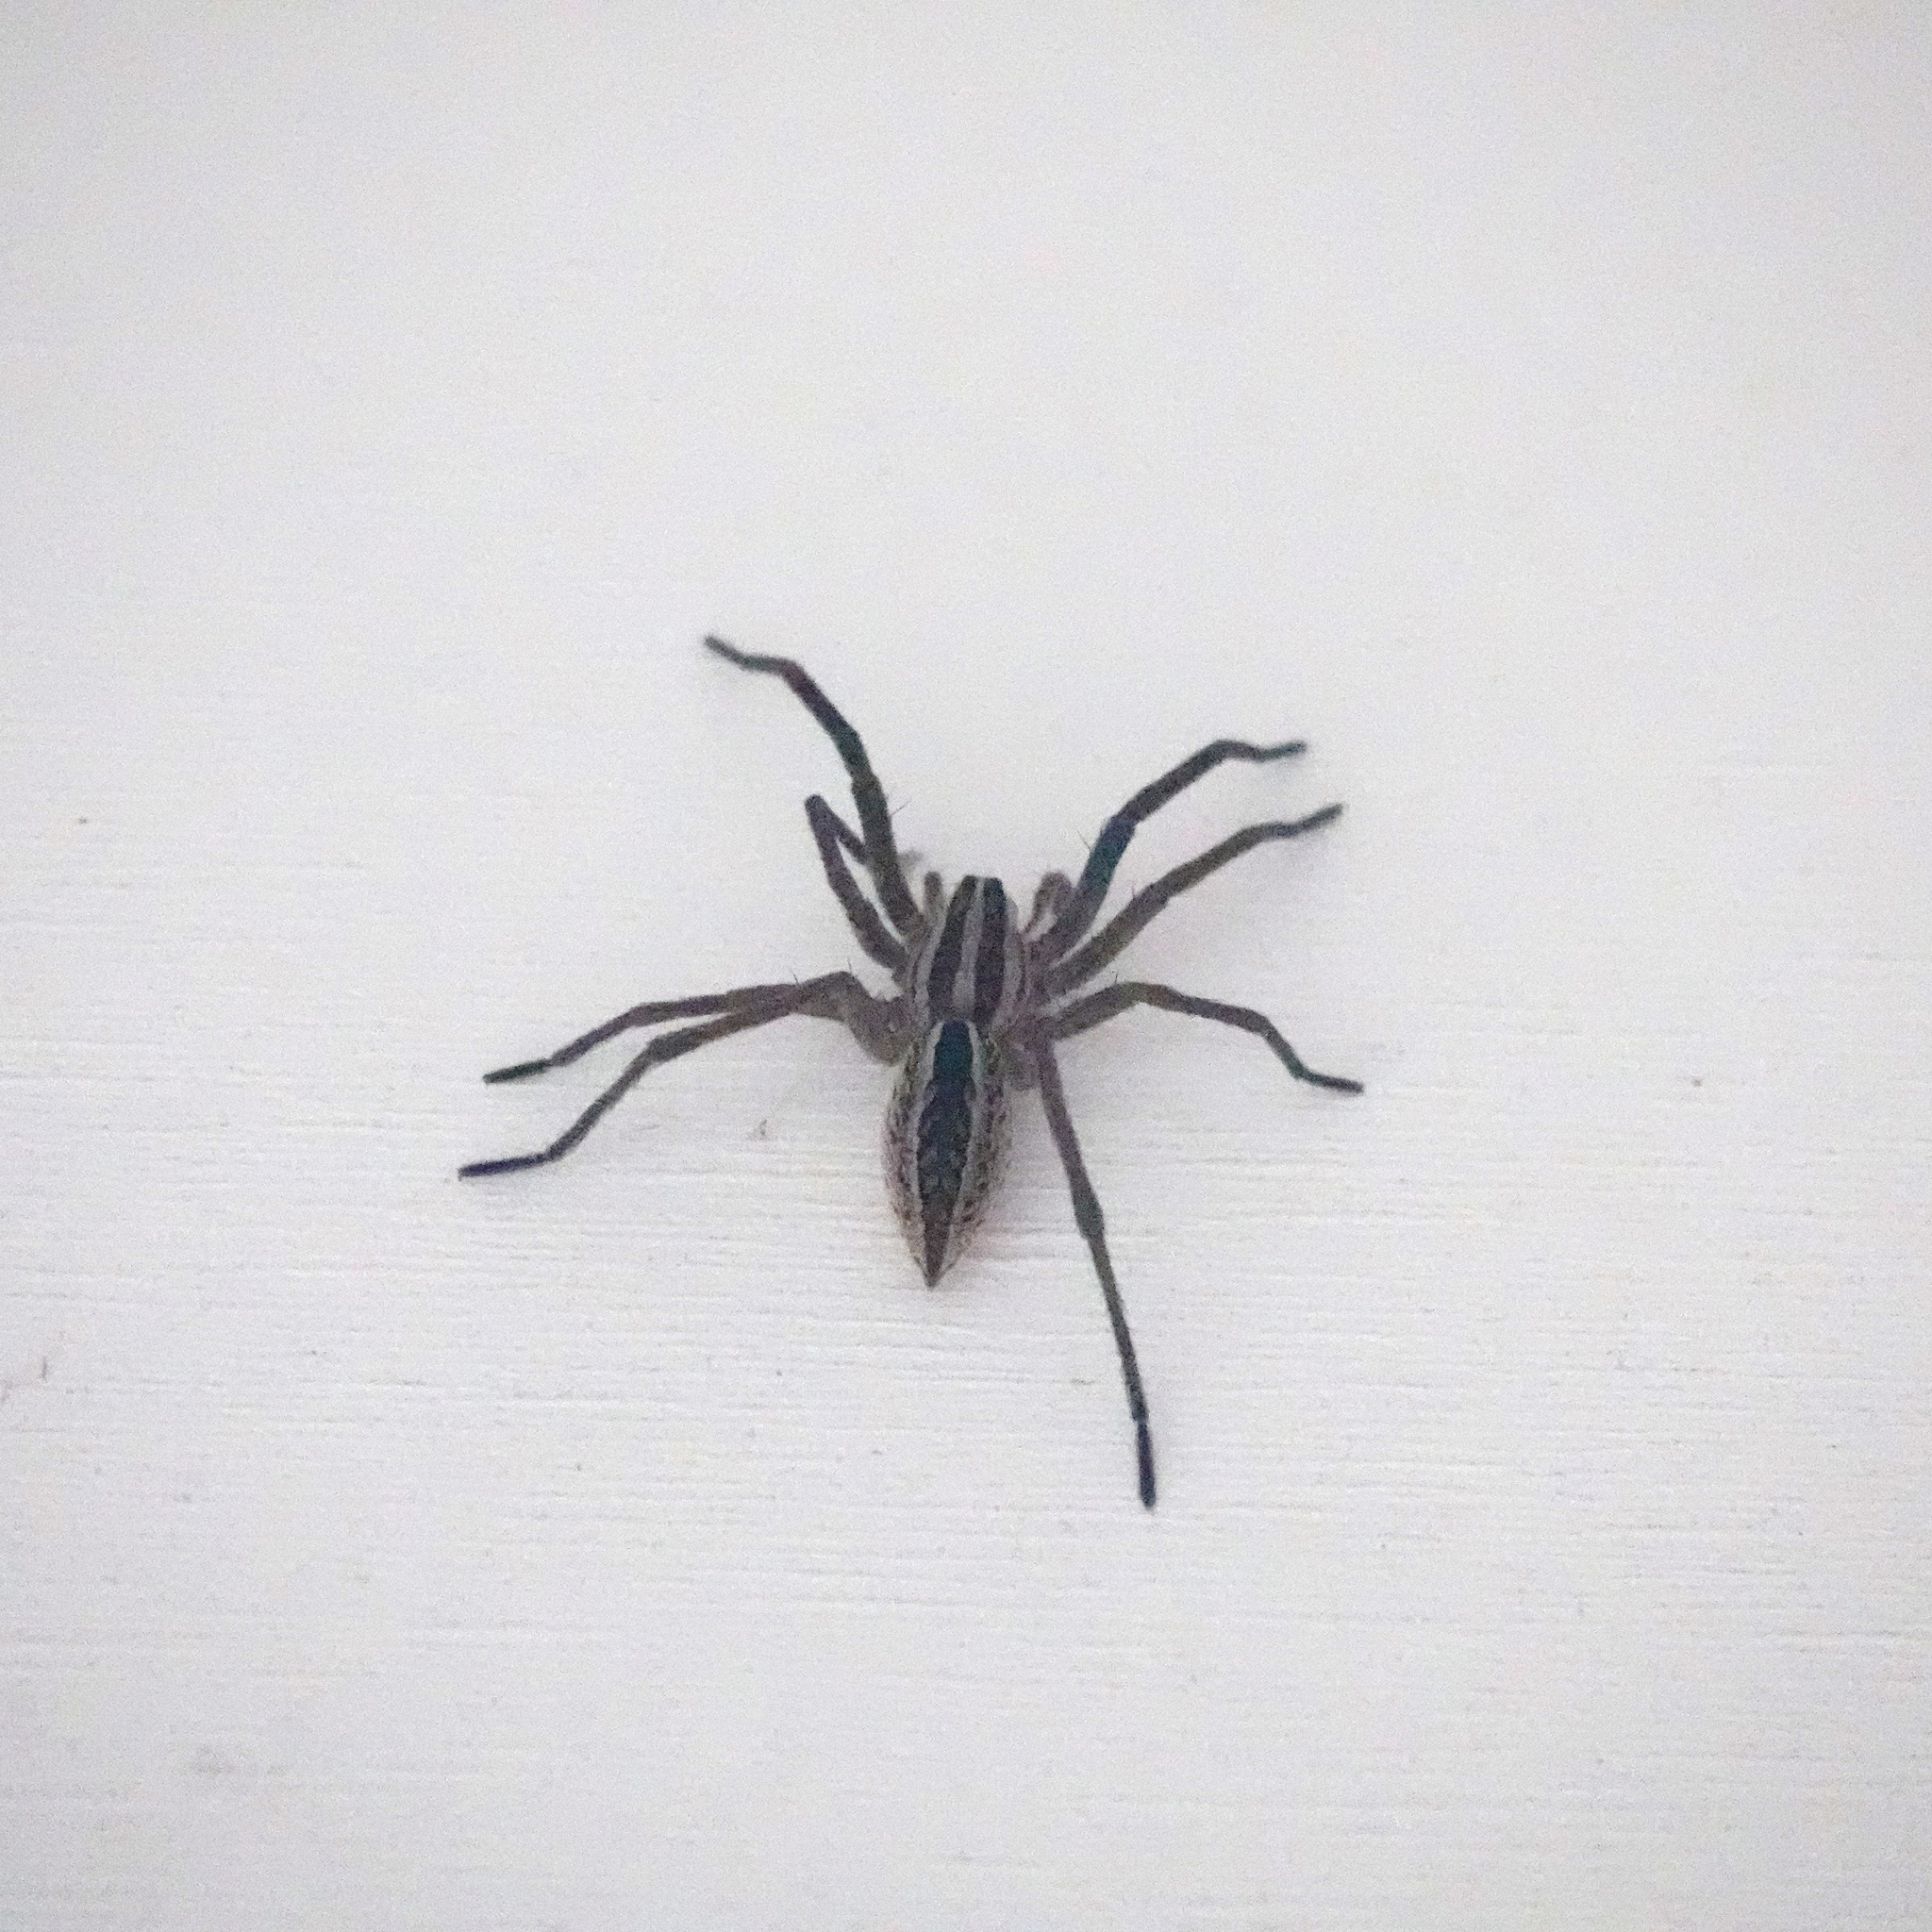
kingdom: Animalia
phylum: Arthropoda
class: Arachnida
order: Araneae
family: Lycosidae
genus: Rabidosa
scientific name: Rabidosa rabida
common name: Rabid wolf spider
